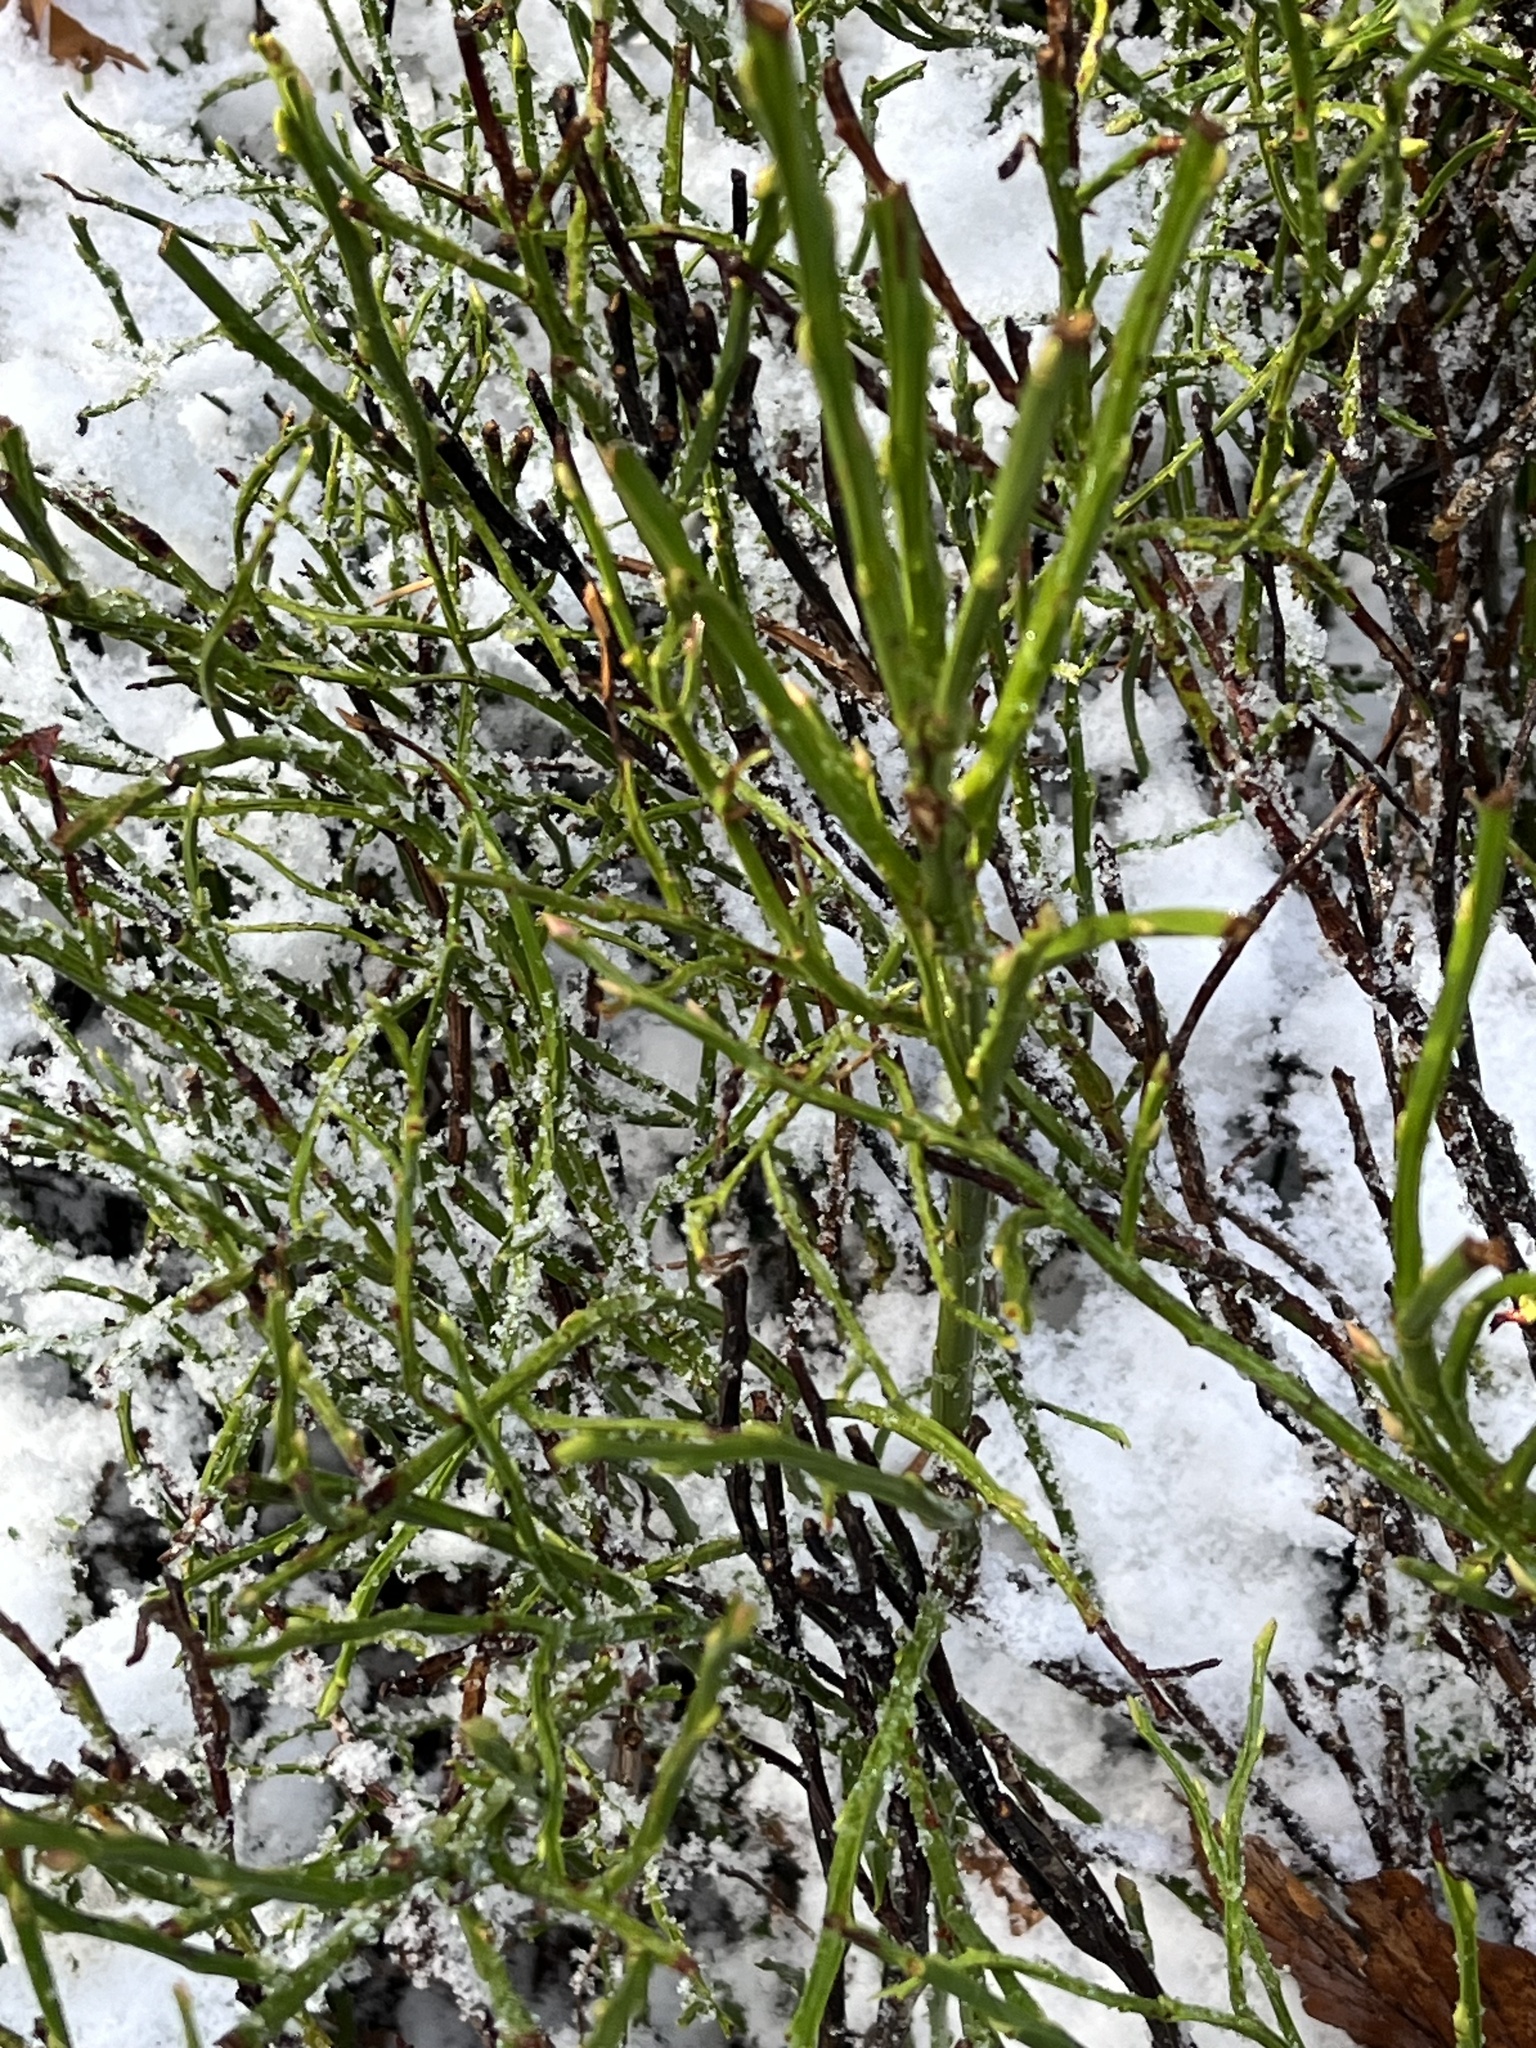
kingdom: Plantae
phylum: Tracheophyta
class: Magnoliopsida
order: Ericales
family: Ericaceae
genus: Vaccinium
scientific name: Vaccinium myrtillus
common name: Bilberry
